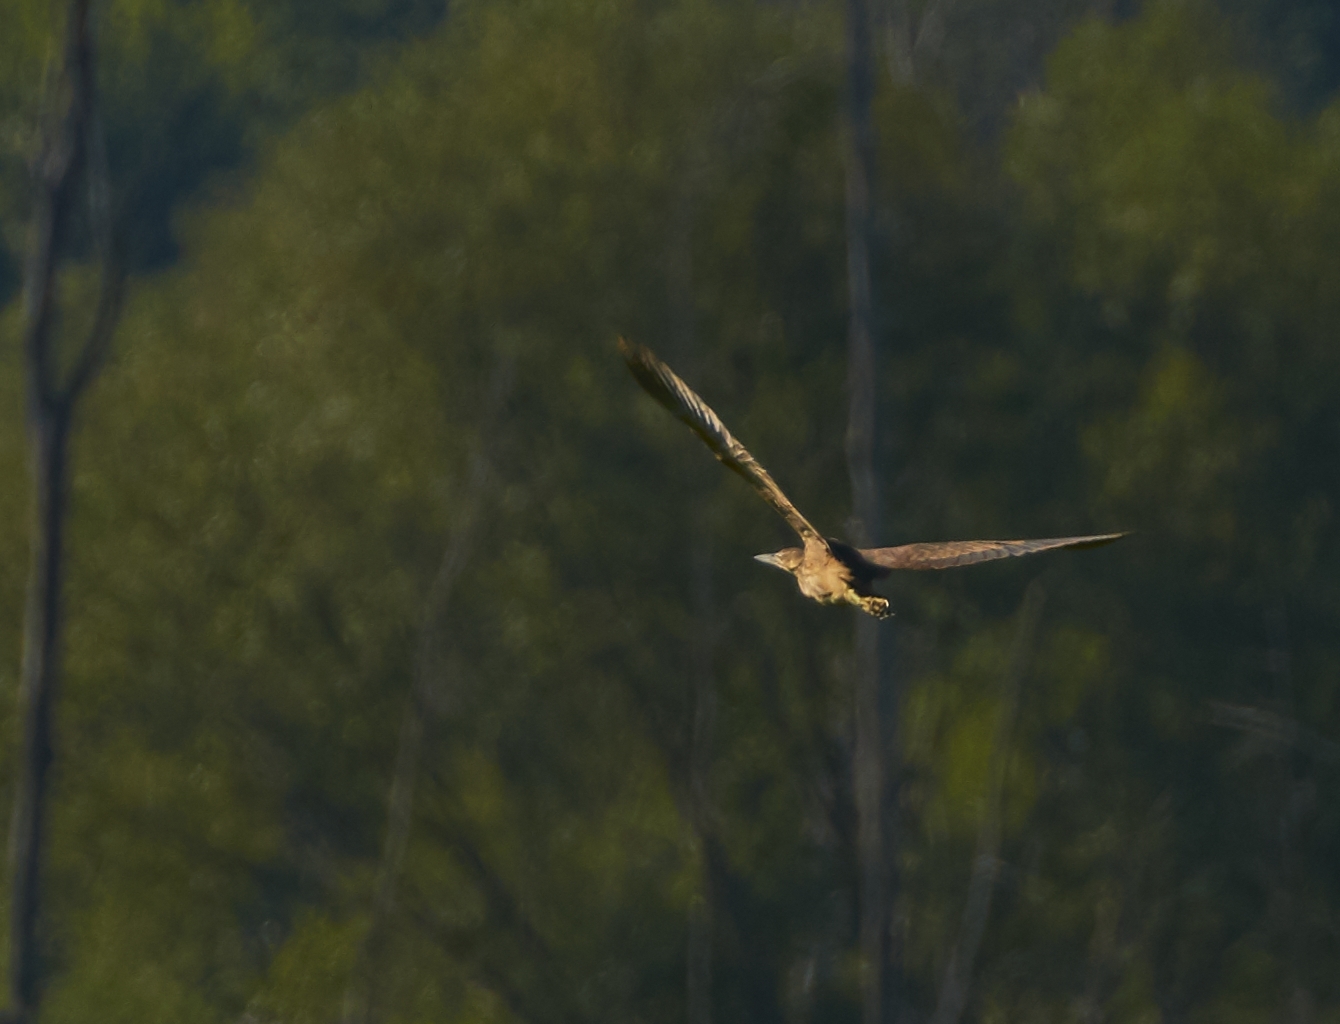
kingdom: Animalia
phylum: Chordata
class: Aves
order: Pelecaniformes
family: Ardeidae
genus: Botaurus
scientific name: Botaurus lentiginosus
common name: American bittern
